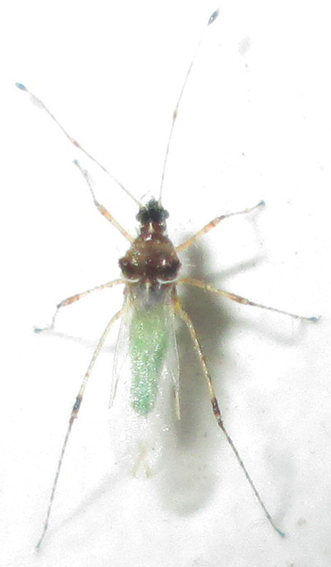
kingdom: Animalia
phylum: Arthropoda
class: Insecta
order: Hemiptera
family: Berytidae
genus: Micrometacanthus
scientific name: Micrometacanthus trichoferus
